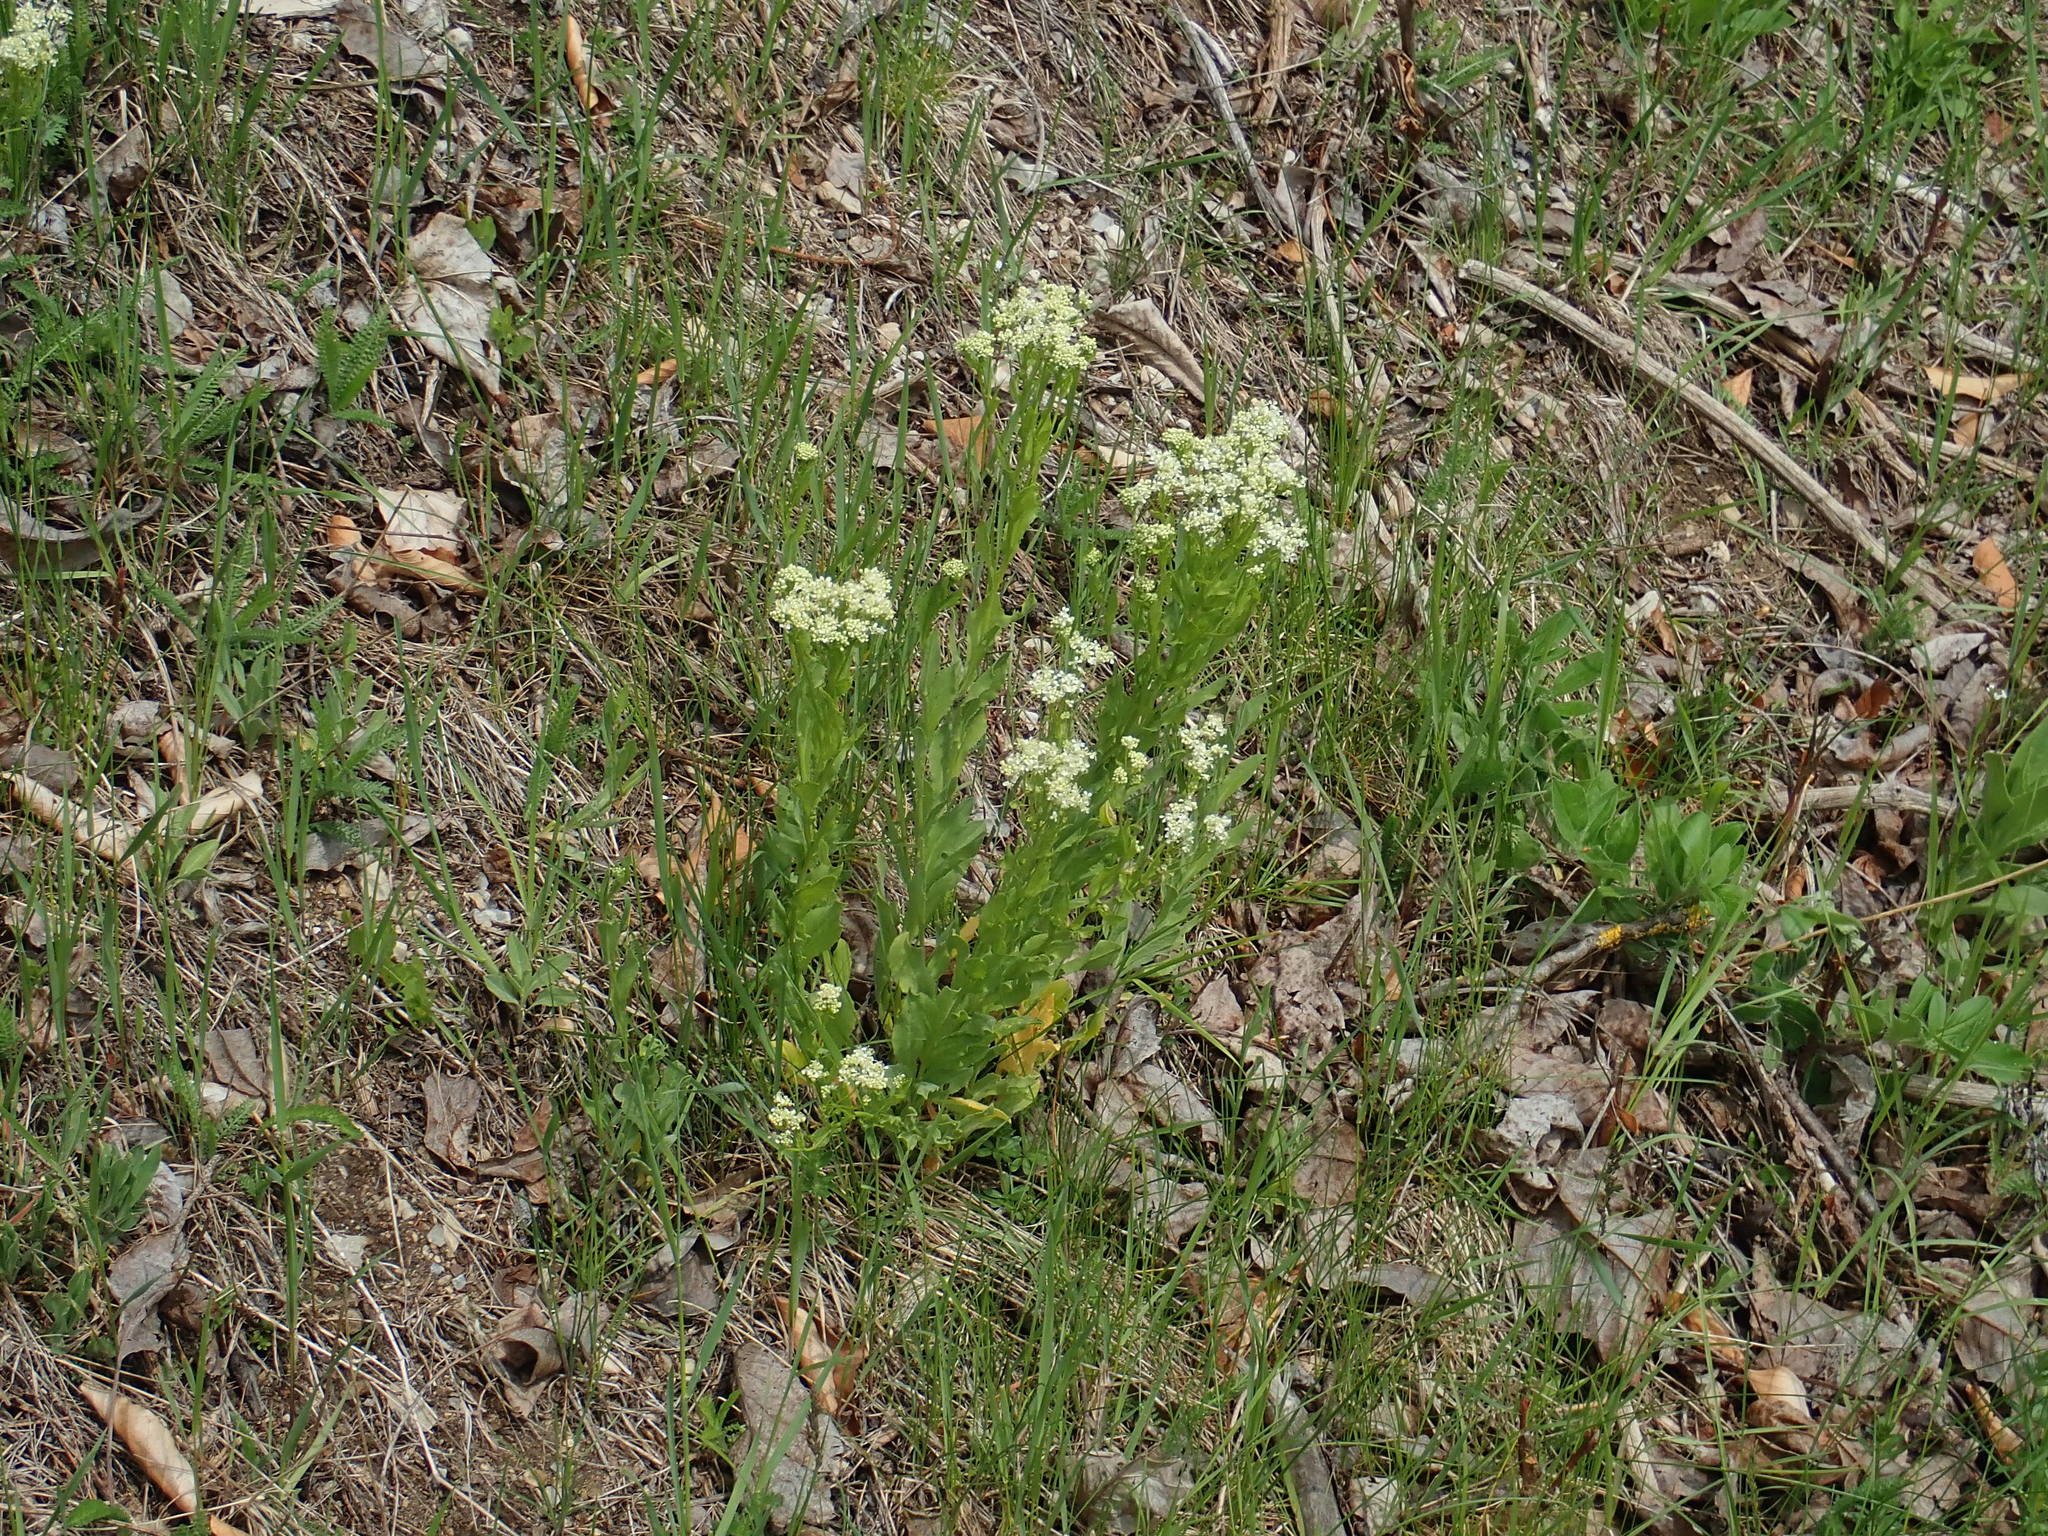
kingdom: Plantae
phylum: Tracheophyta
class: Magnoliopsida
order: Brassicales
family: Brassicaceae
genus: Lepidium
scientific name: Lepidium draba
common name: Hoary cress
